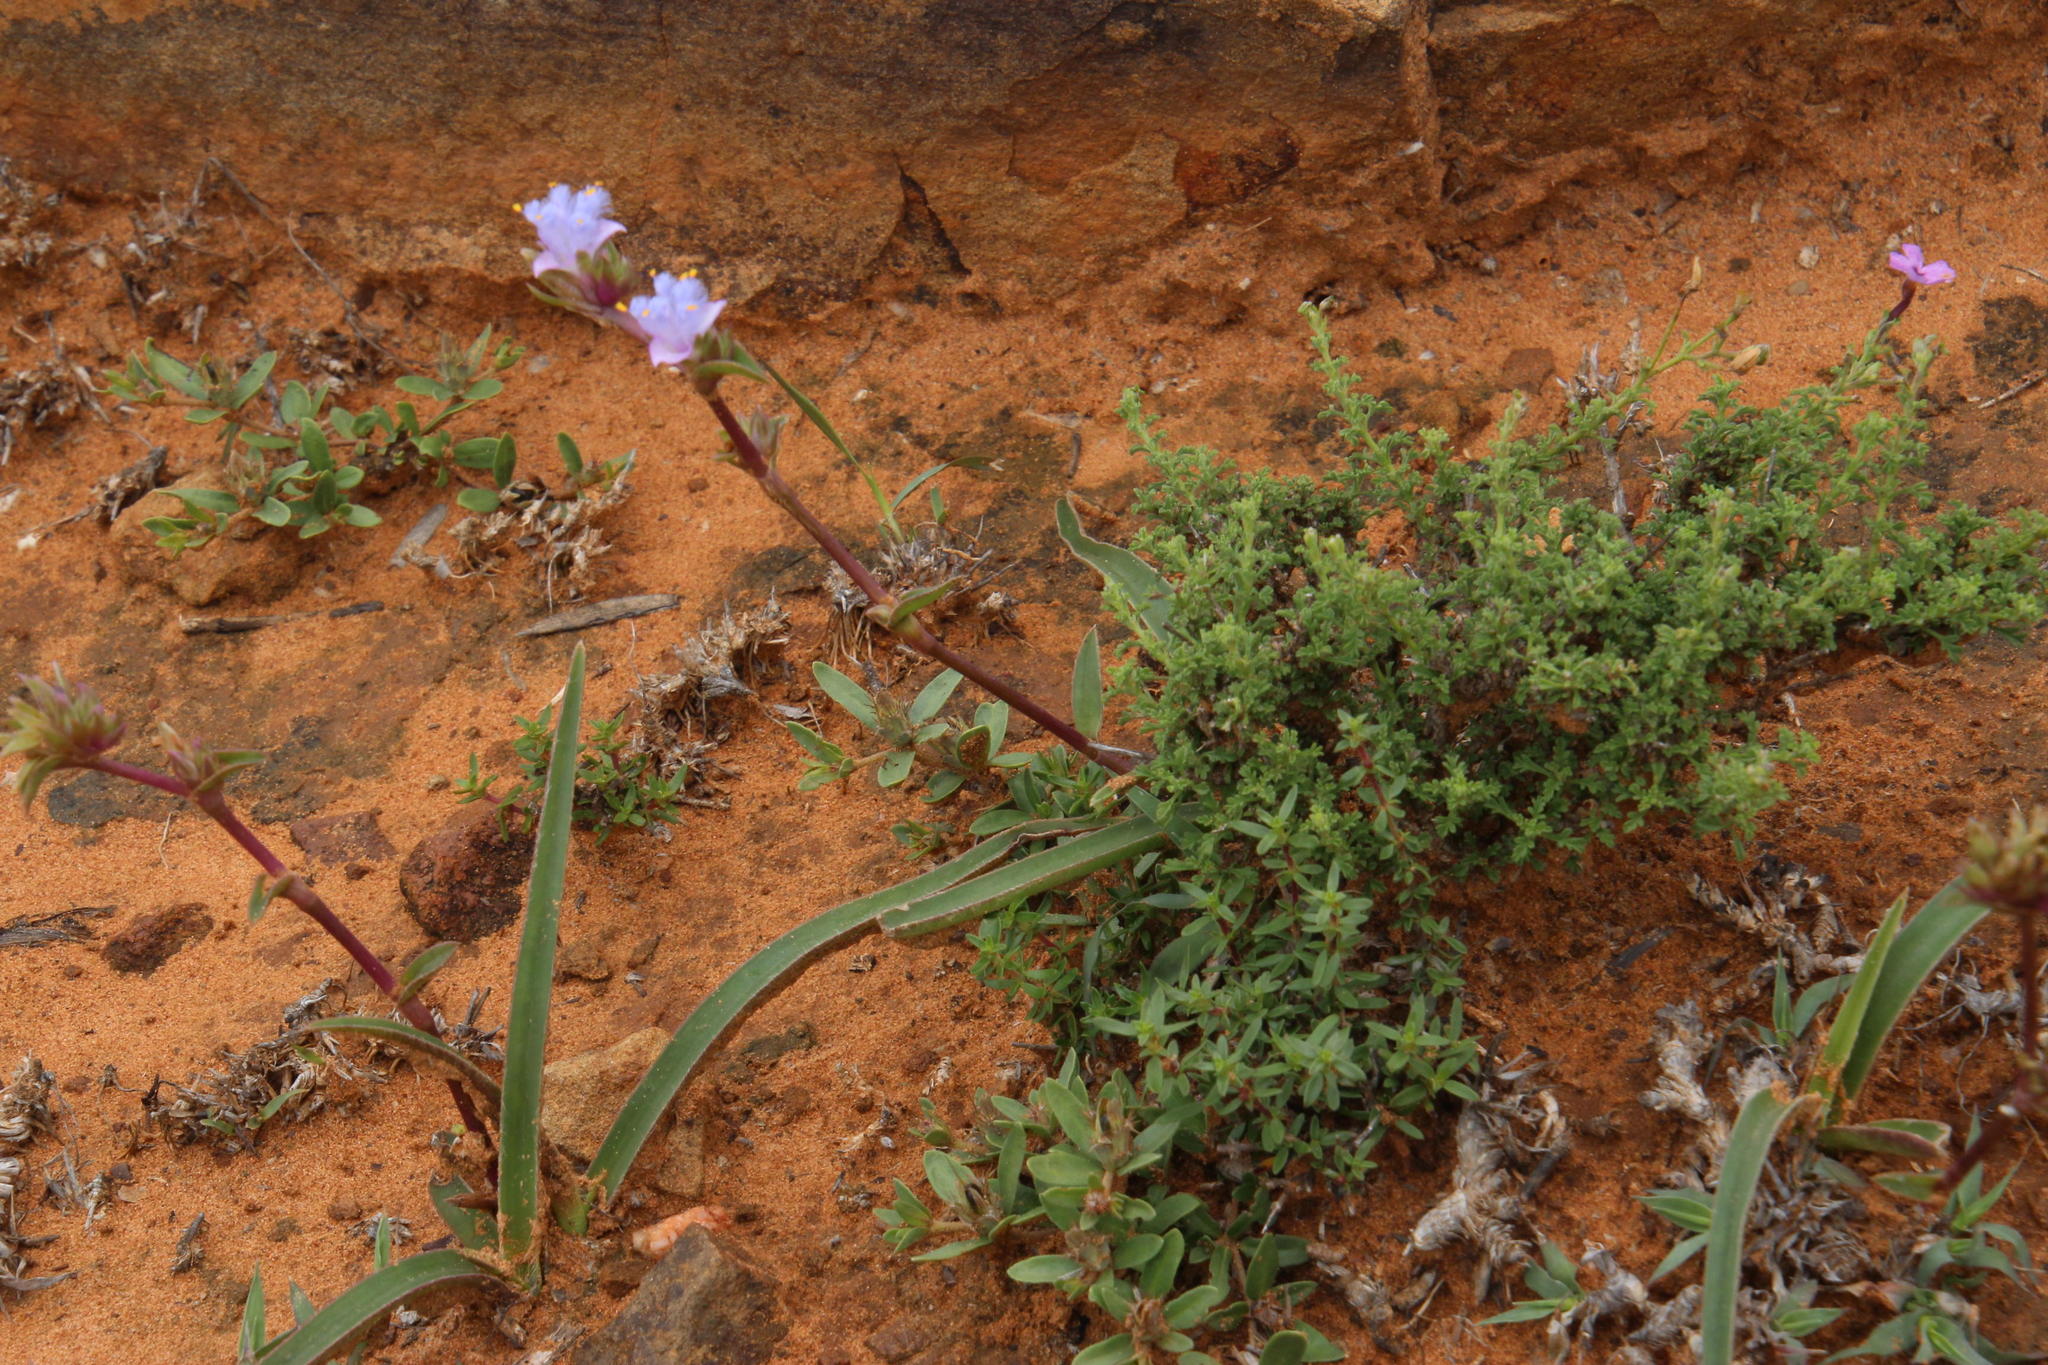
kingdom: Plantae
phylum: Tracheophyta
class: Liliopsida
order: Commelinales
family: Commelinaceae
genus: Cyanotis
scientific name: Cyanotis speciosa
